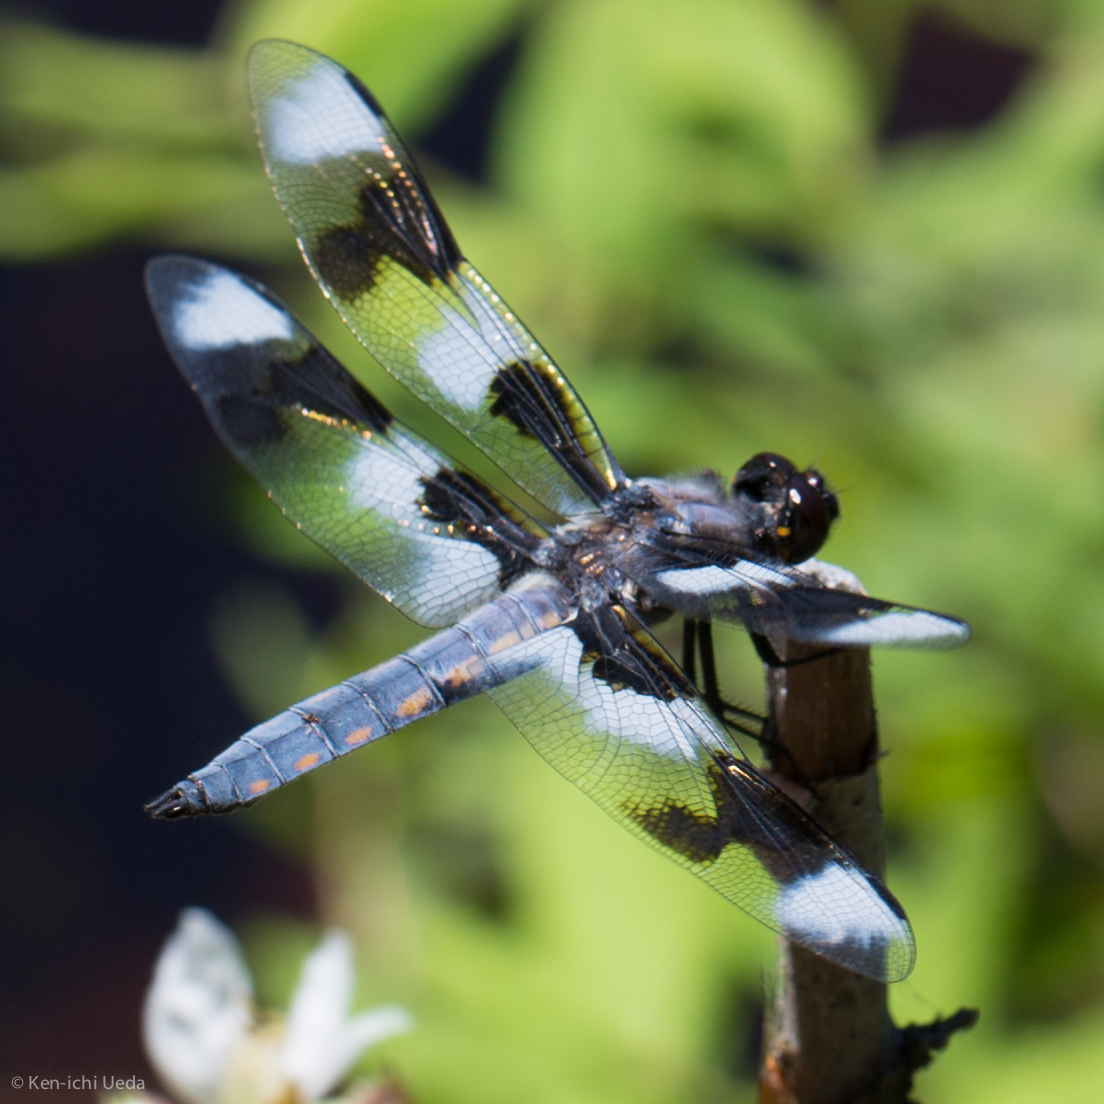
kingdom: Animalia
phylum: Arthropoda
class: Insecta
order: Odonata
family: Libellulidae
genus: Libellula
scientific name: Libellula forensis
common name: Eight-spotted skimmer
